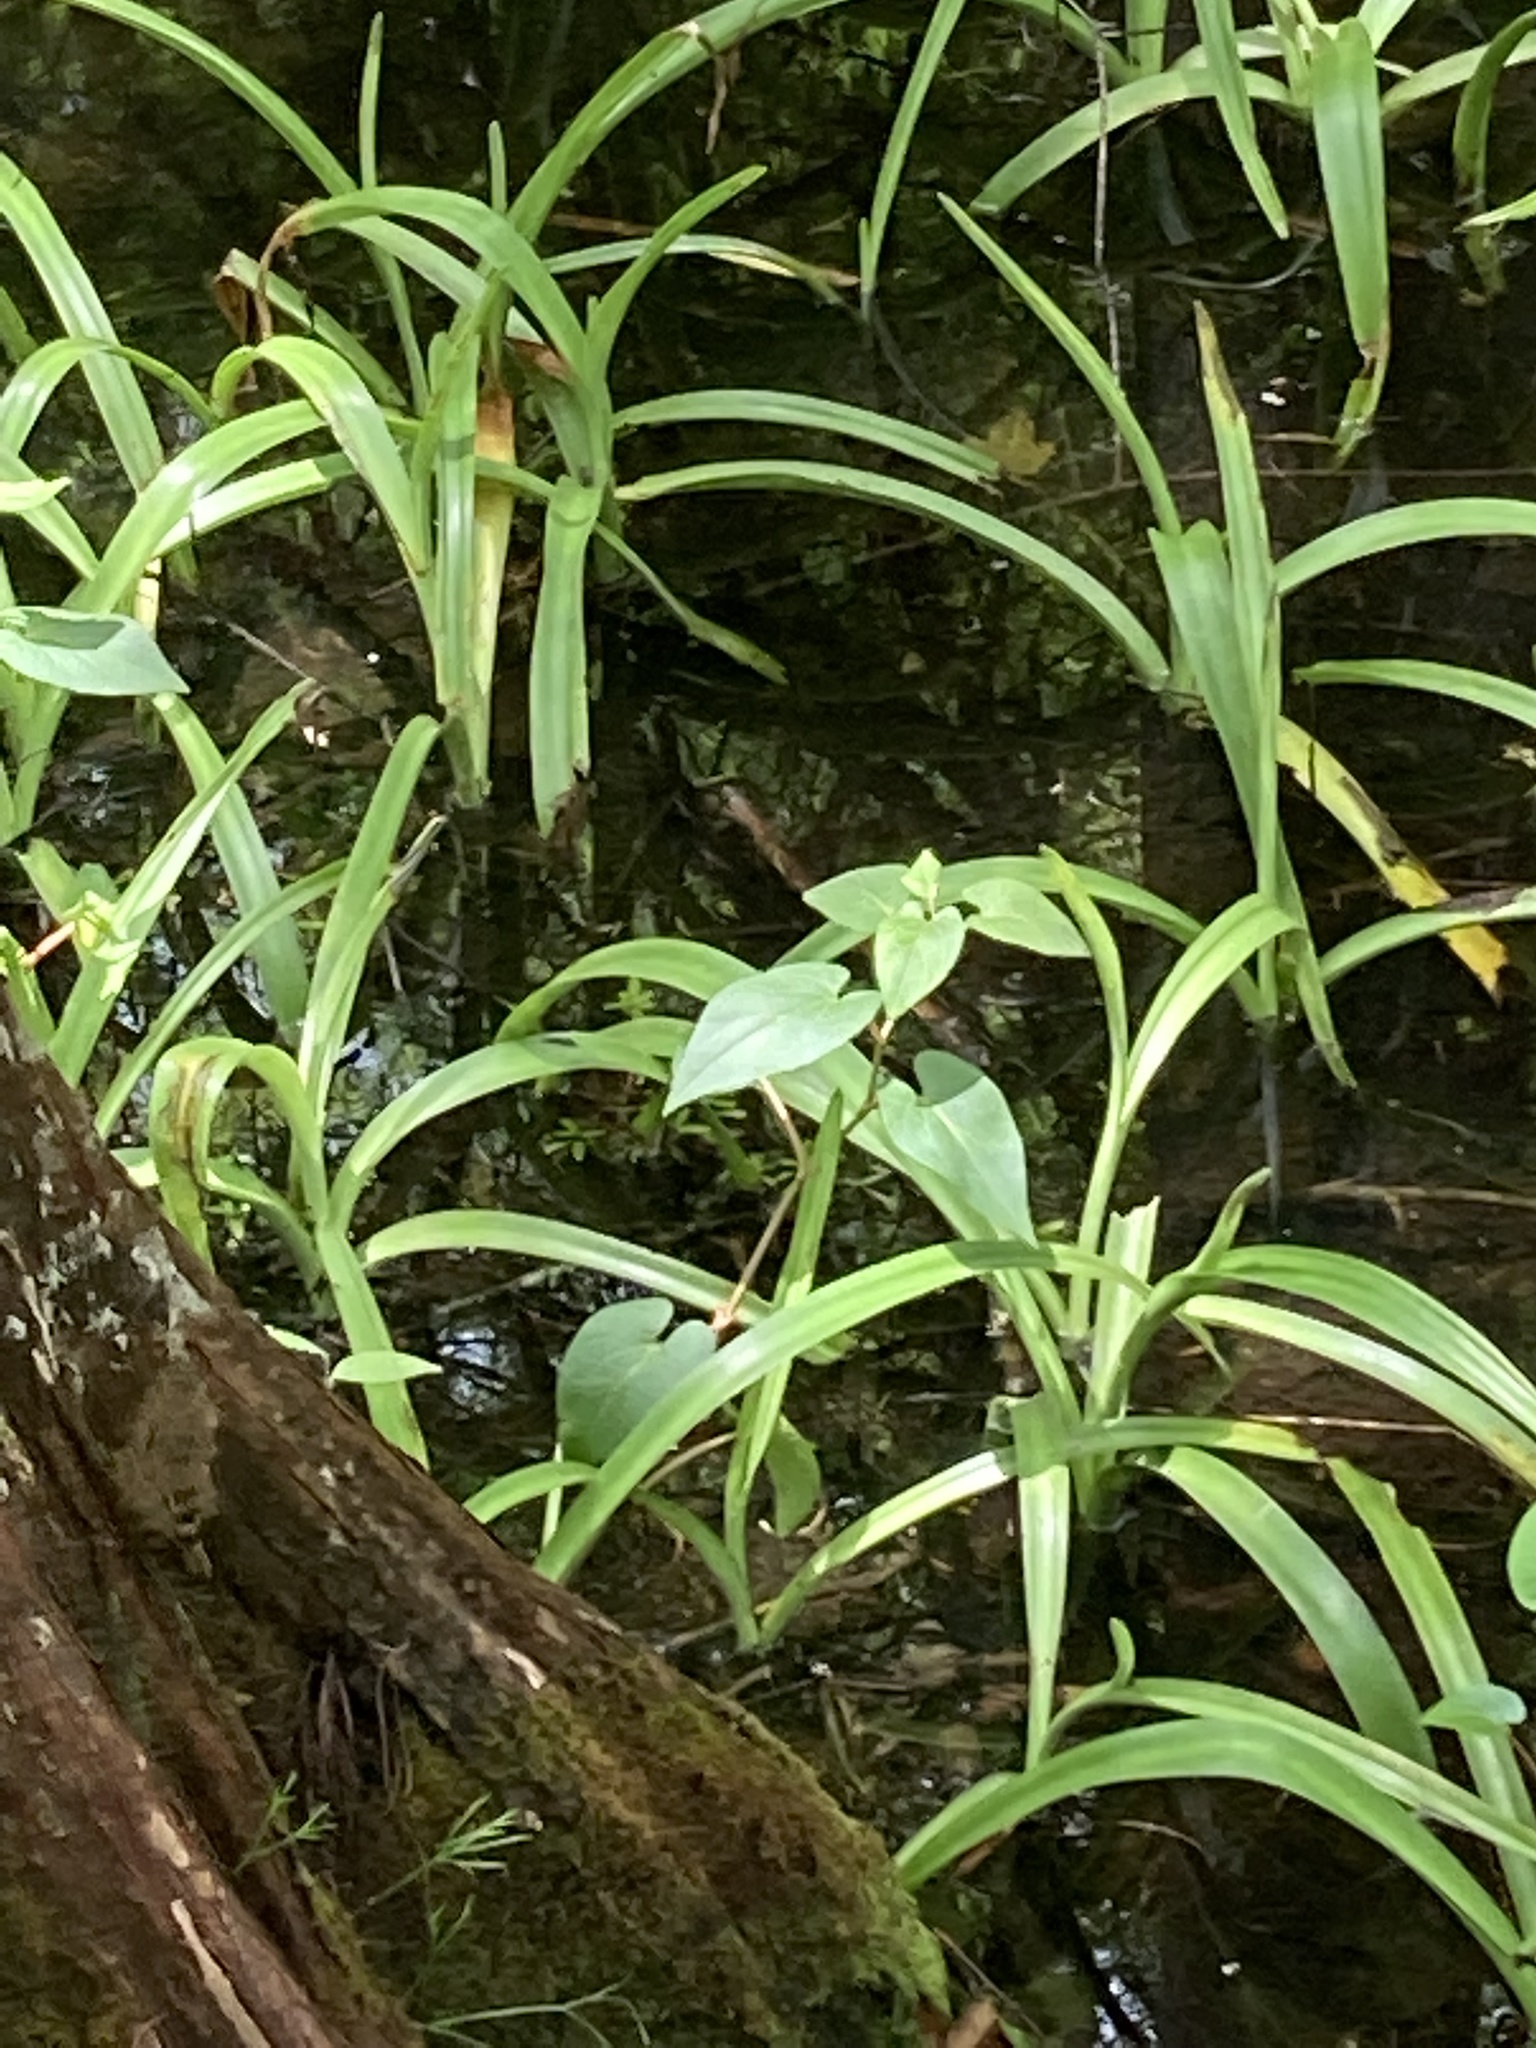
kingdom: Plantae
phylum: Tracheophyta
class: Magnoliopsida
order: Piperales
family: Saururaceae
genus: Saururus
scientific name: Saururus cernuus
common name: Lizard's-tail
